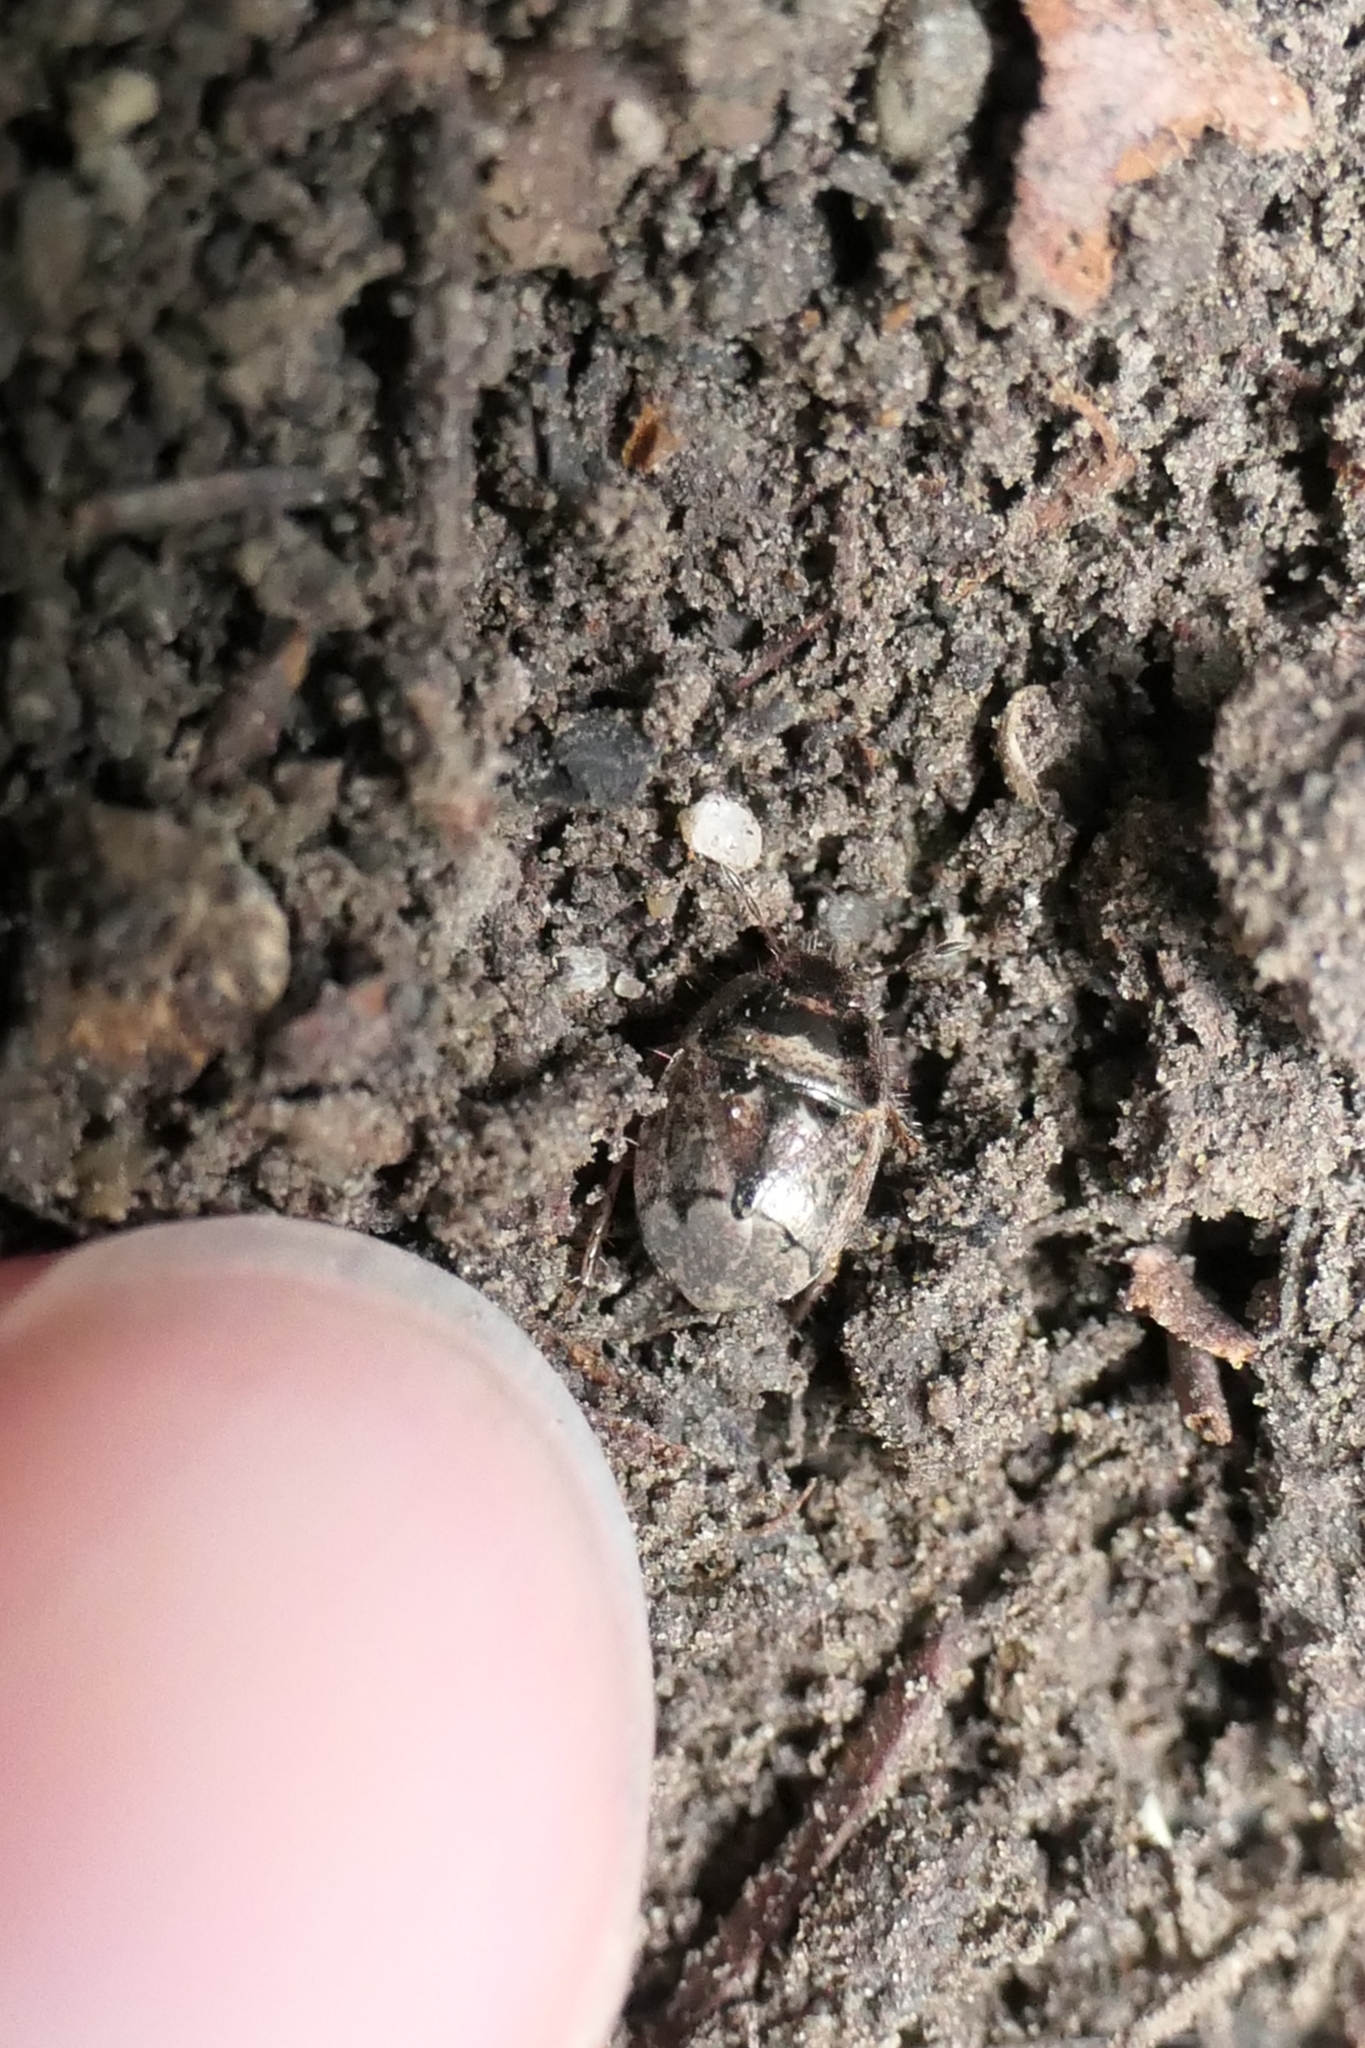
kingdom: Animalia
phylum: Arthropoda
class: Insecta
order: Hemiptera
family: Cydnidae
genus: Cydnochoerus
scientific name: Cydnochoerus
